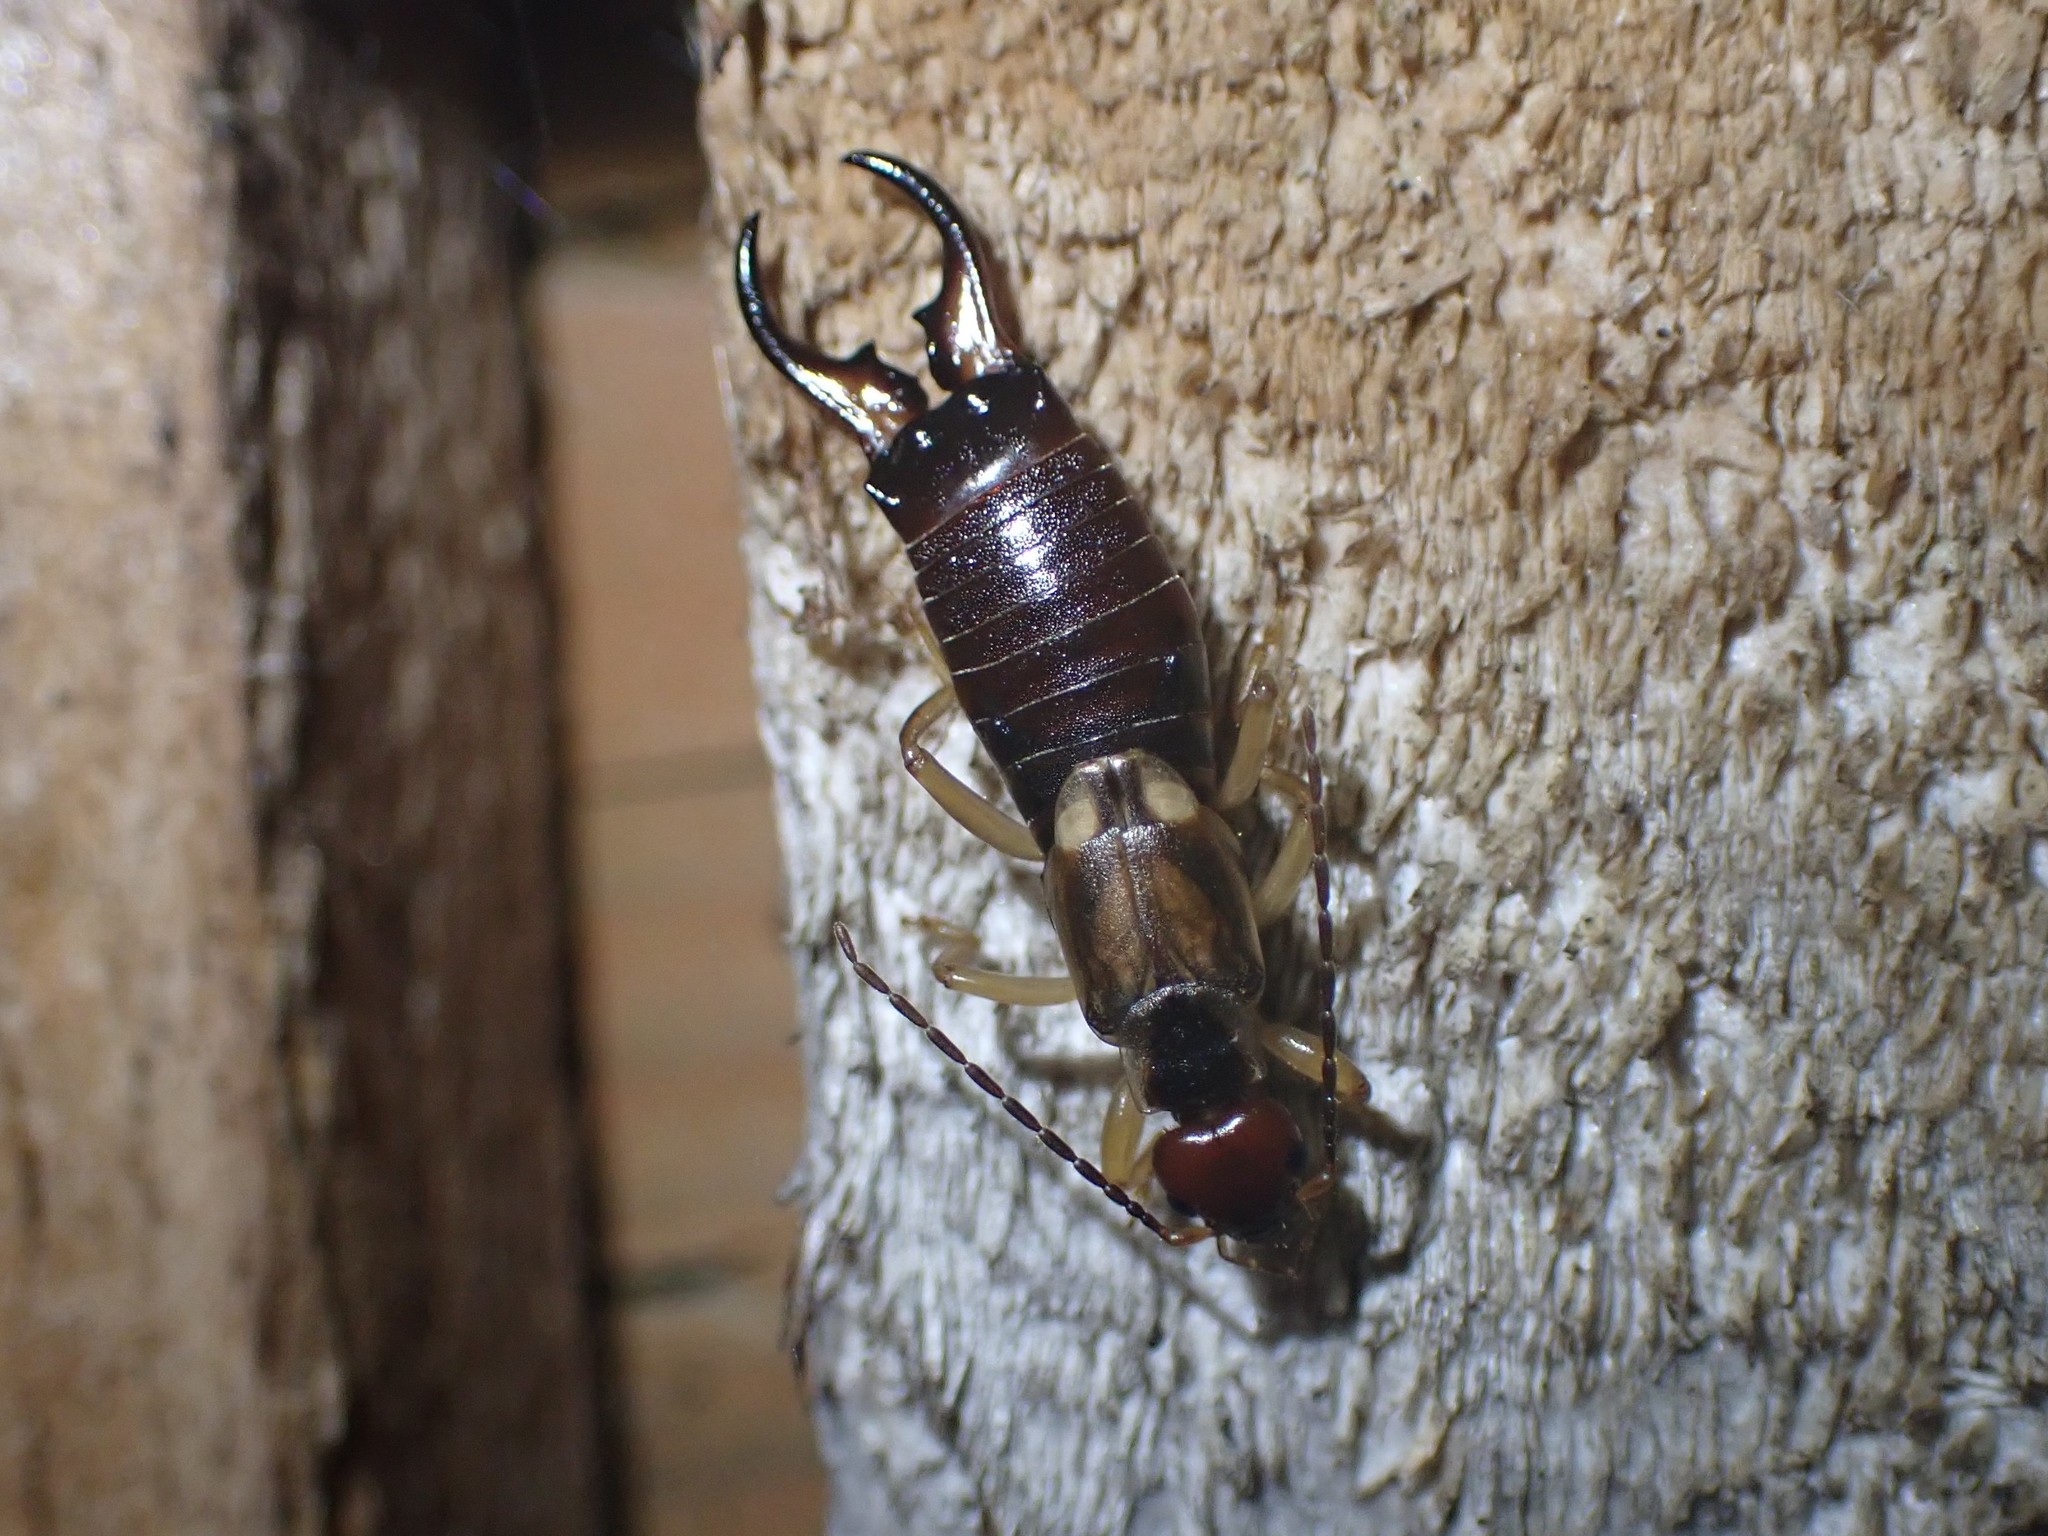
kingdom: Animalia
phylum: Arthropoda
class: Insecta
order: Dermaptera
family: Forficulidae
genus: Forficula
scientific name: Forficula
